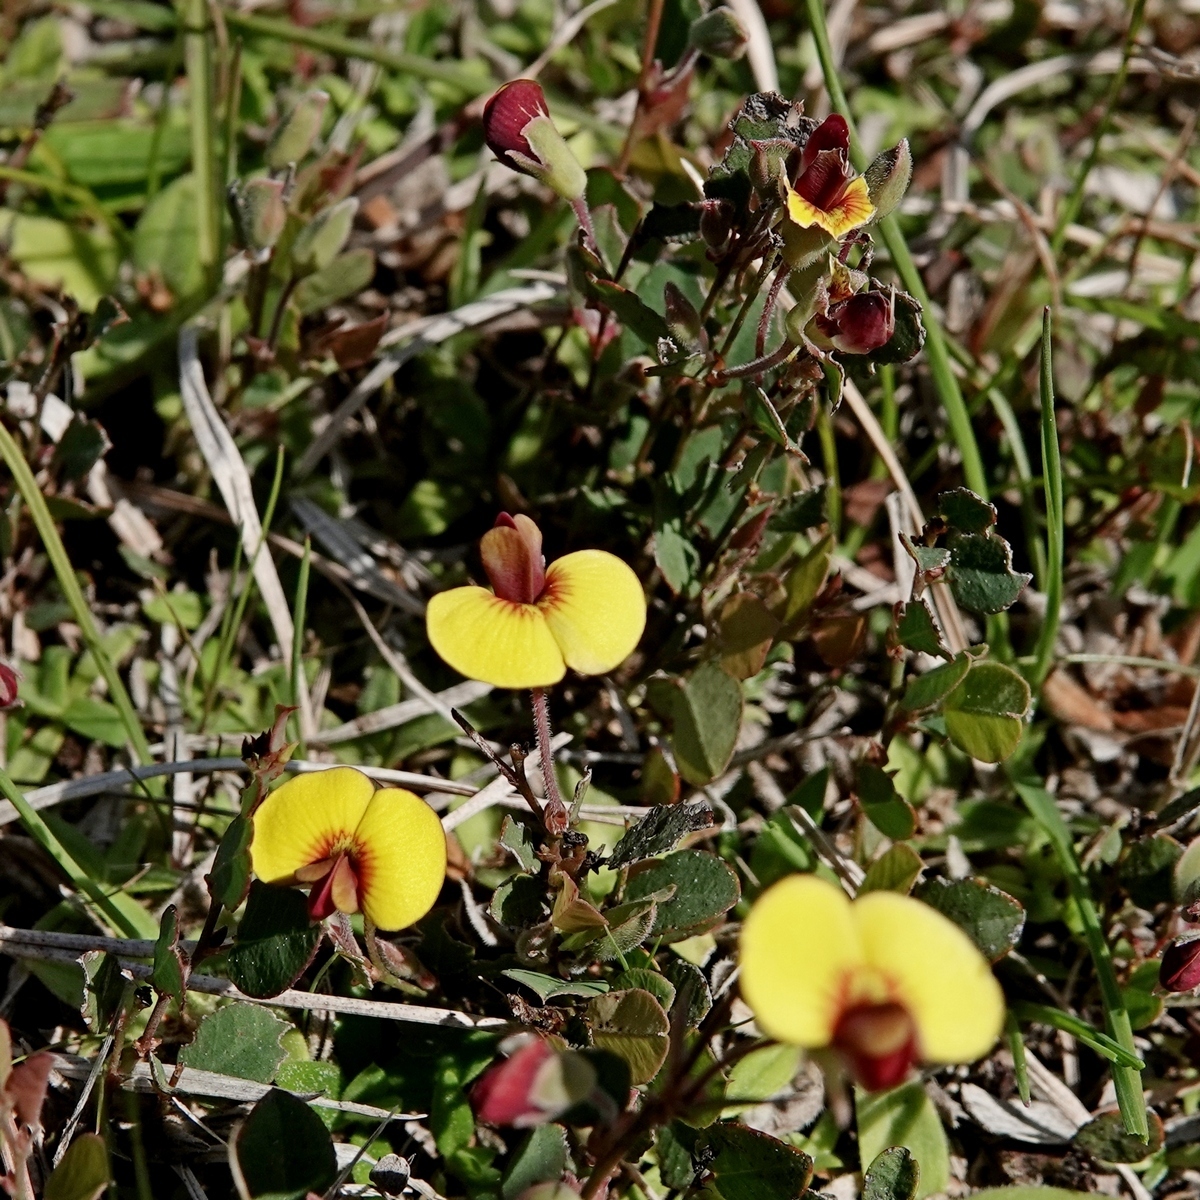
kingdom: Plantae
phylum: Tracheophyta
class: Magnoliopsida
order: Fabales
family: Fabaceae
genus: Bossiaea
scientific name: Bossiaea prostrata
